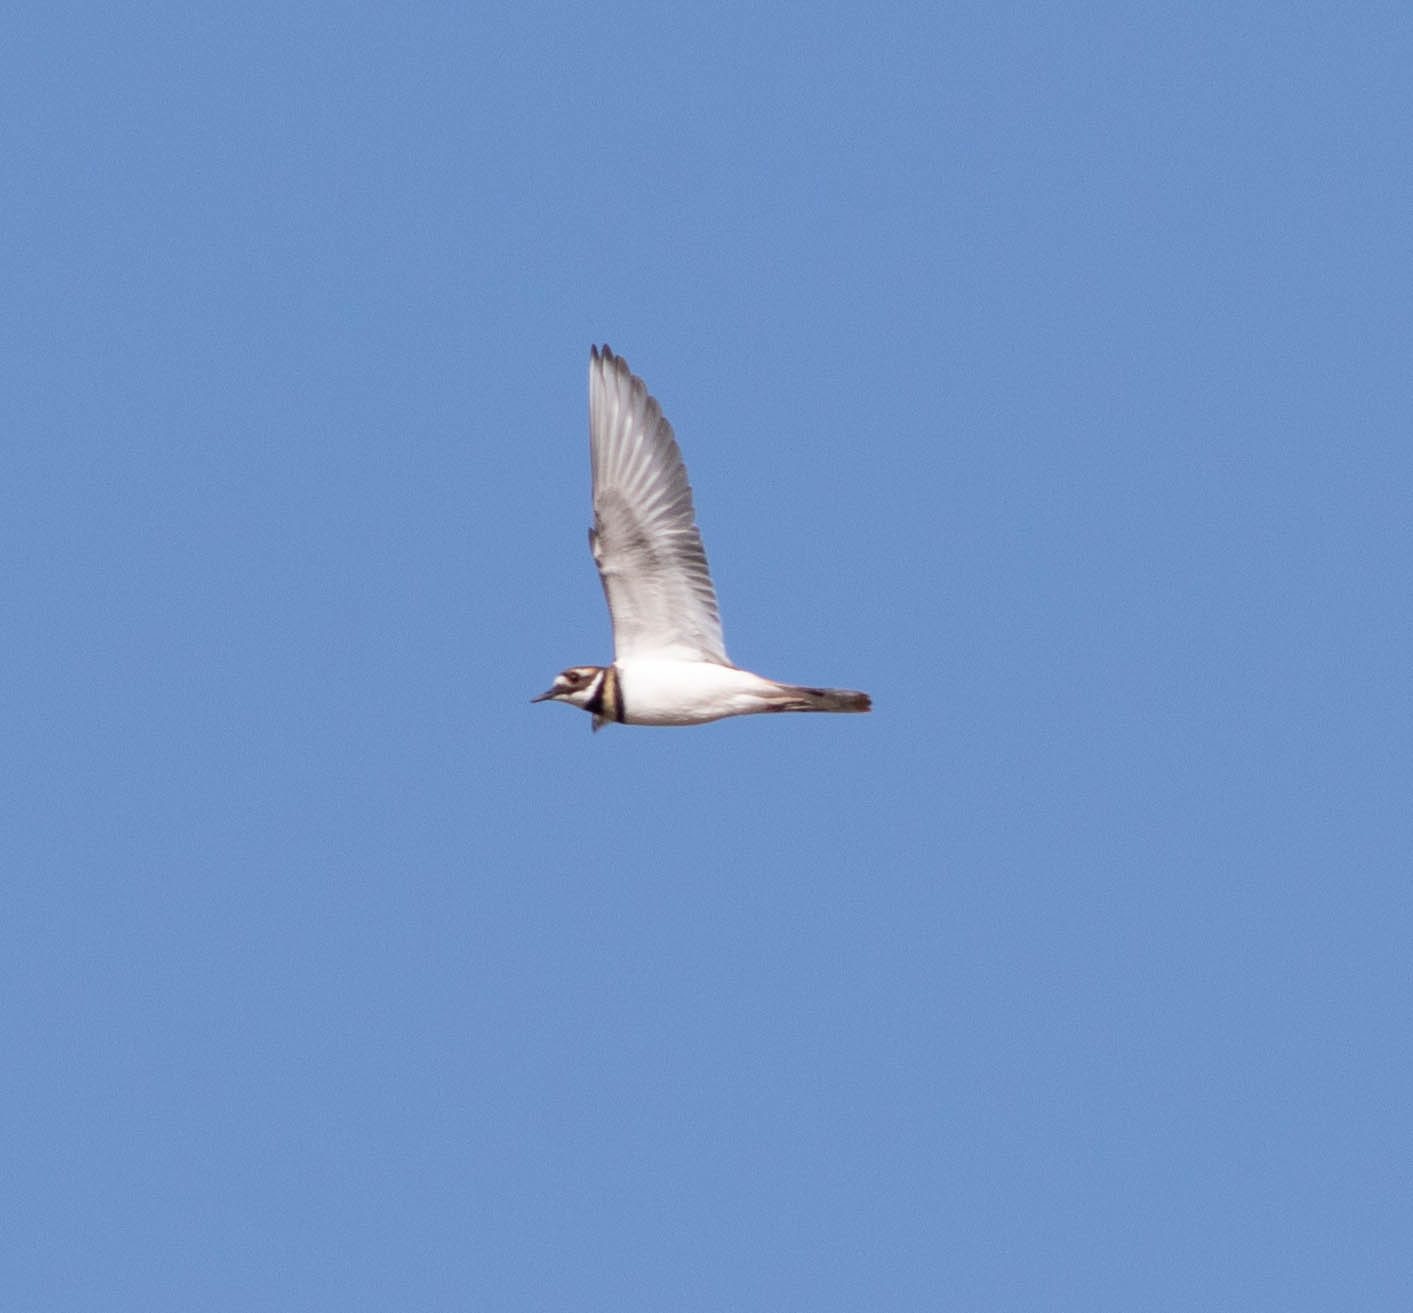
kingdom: Animalia
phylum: Chordata
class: Aves
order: Charadriiformes
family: Charadriidae
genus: Charadrius
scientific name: Charadrius vociferus
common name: Killdeer
